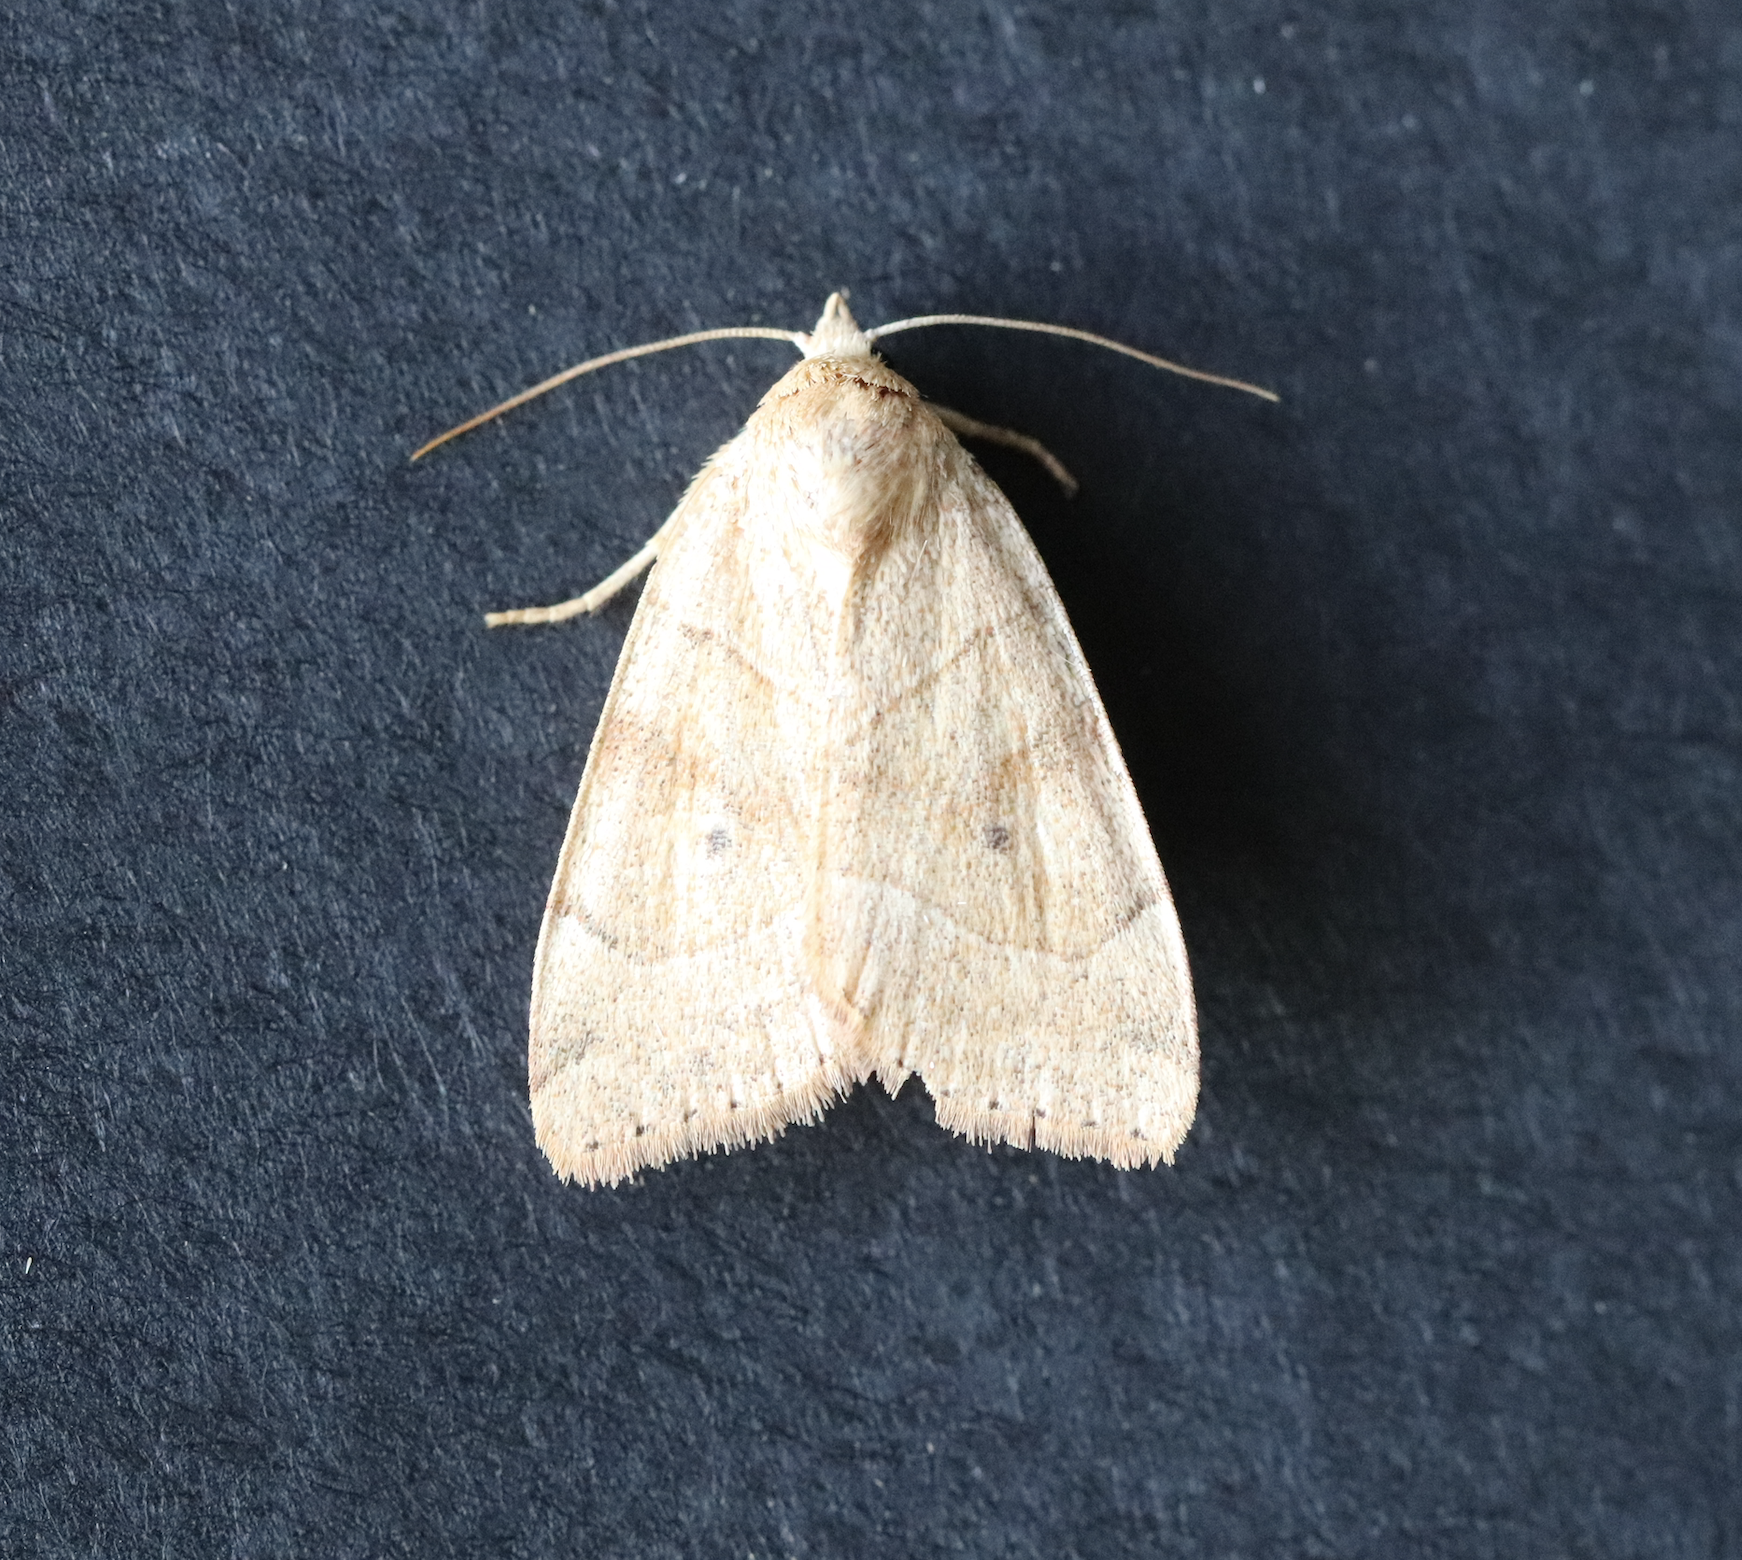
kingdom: Animalia
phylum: Arthropoda
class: Insecta
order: Lepidoptera
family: Noctuidae
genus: Cosmia
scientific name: Cosmia trapezina
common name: Dun-bar
